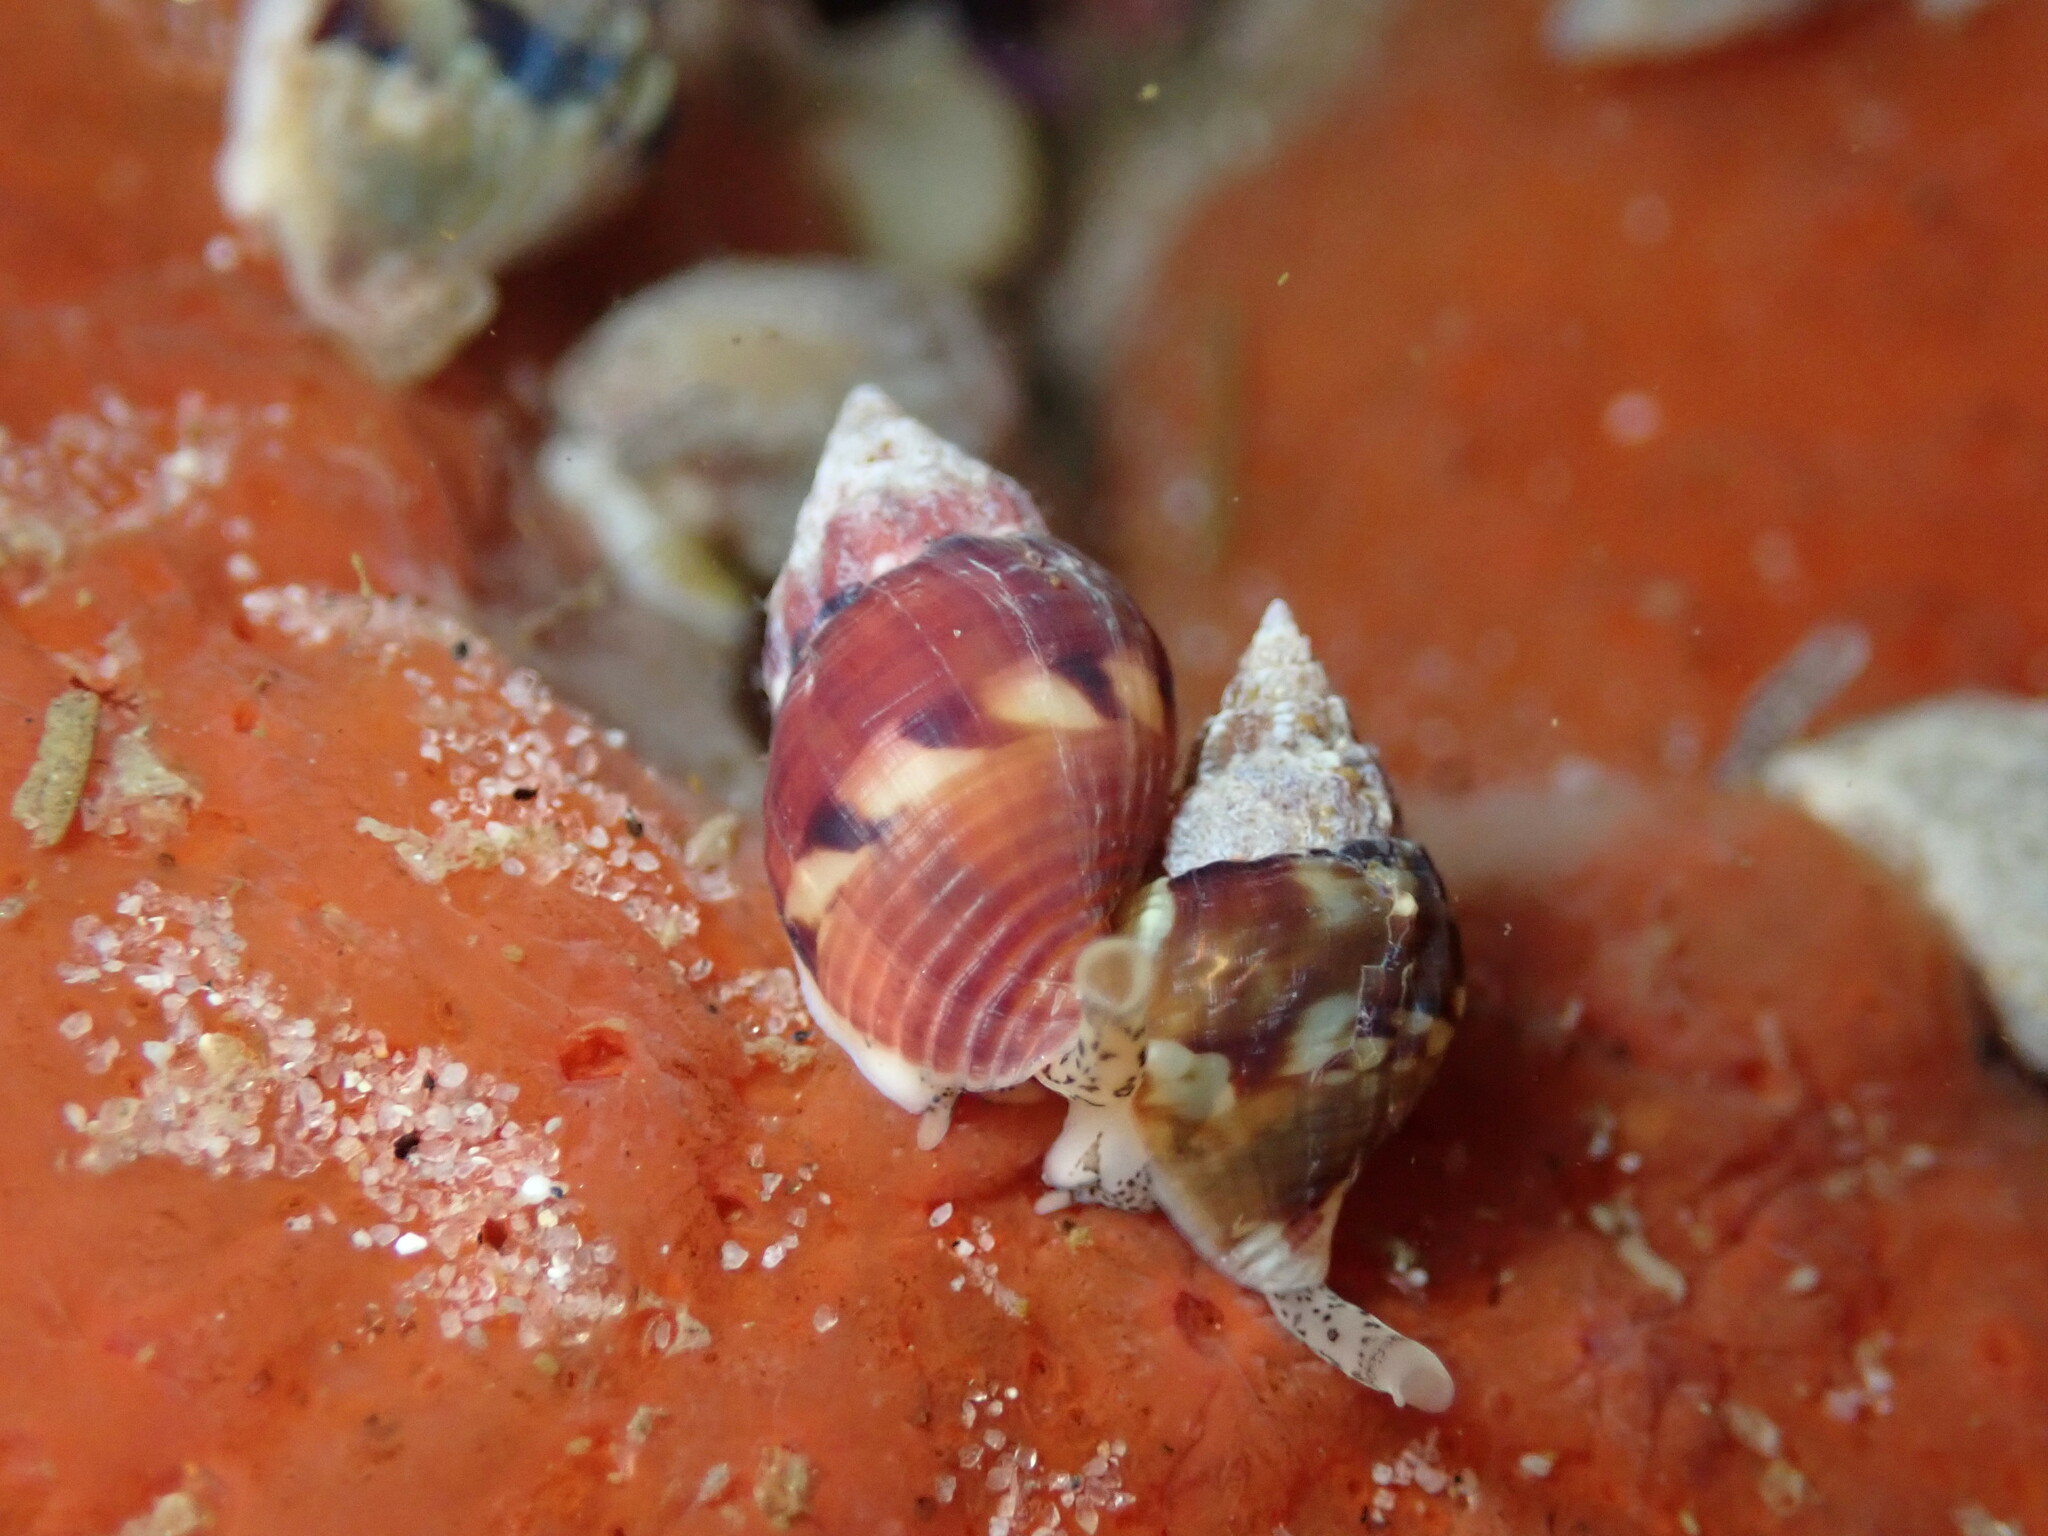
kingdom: Animalia
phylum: Mollusca
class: Gastropoda
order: Neogastropoda
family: Columbellidae
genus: Amphissa
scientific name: Amphissa versicolor
